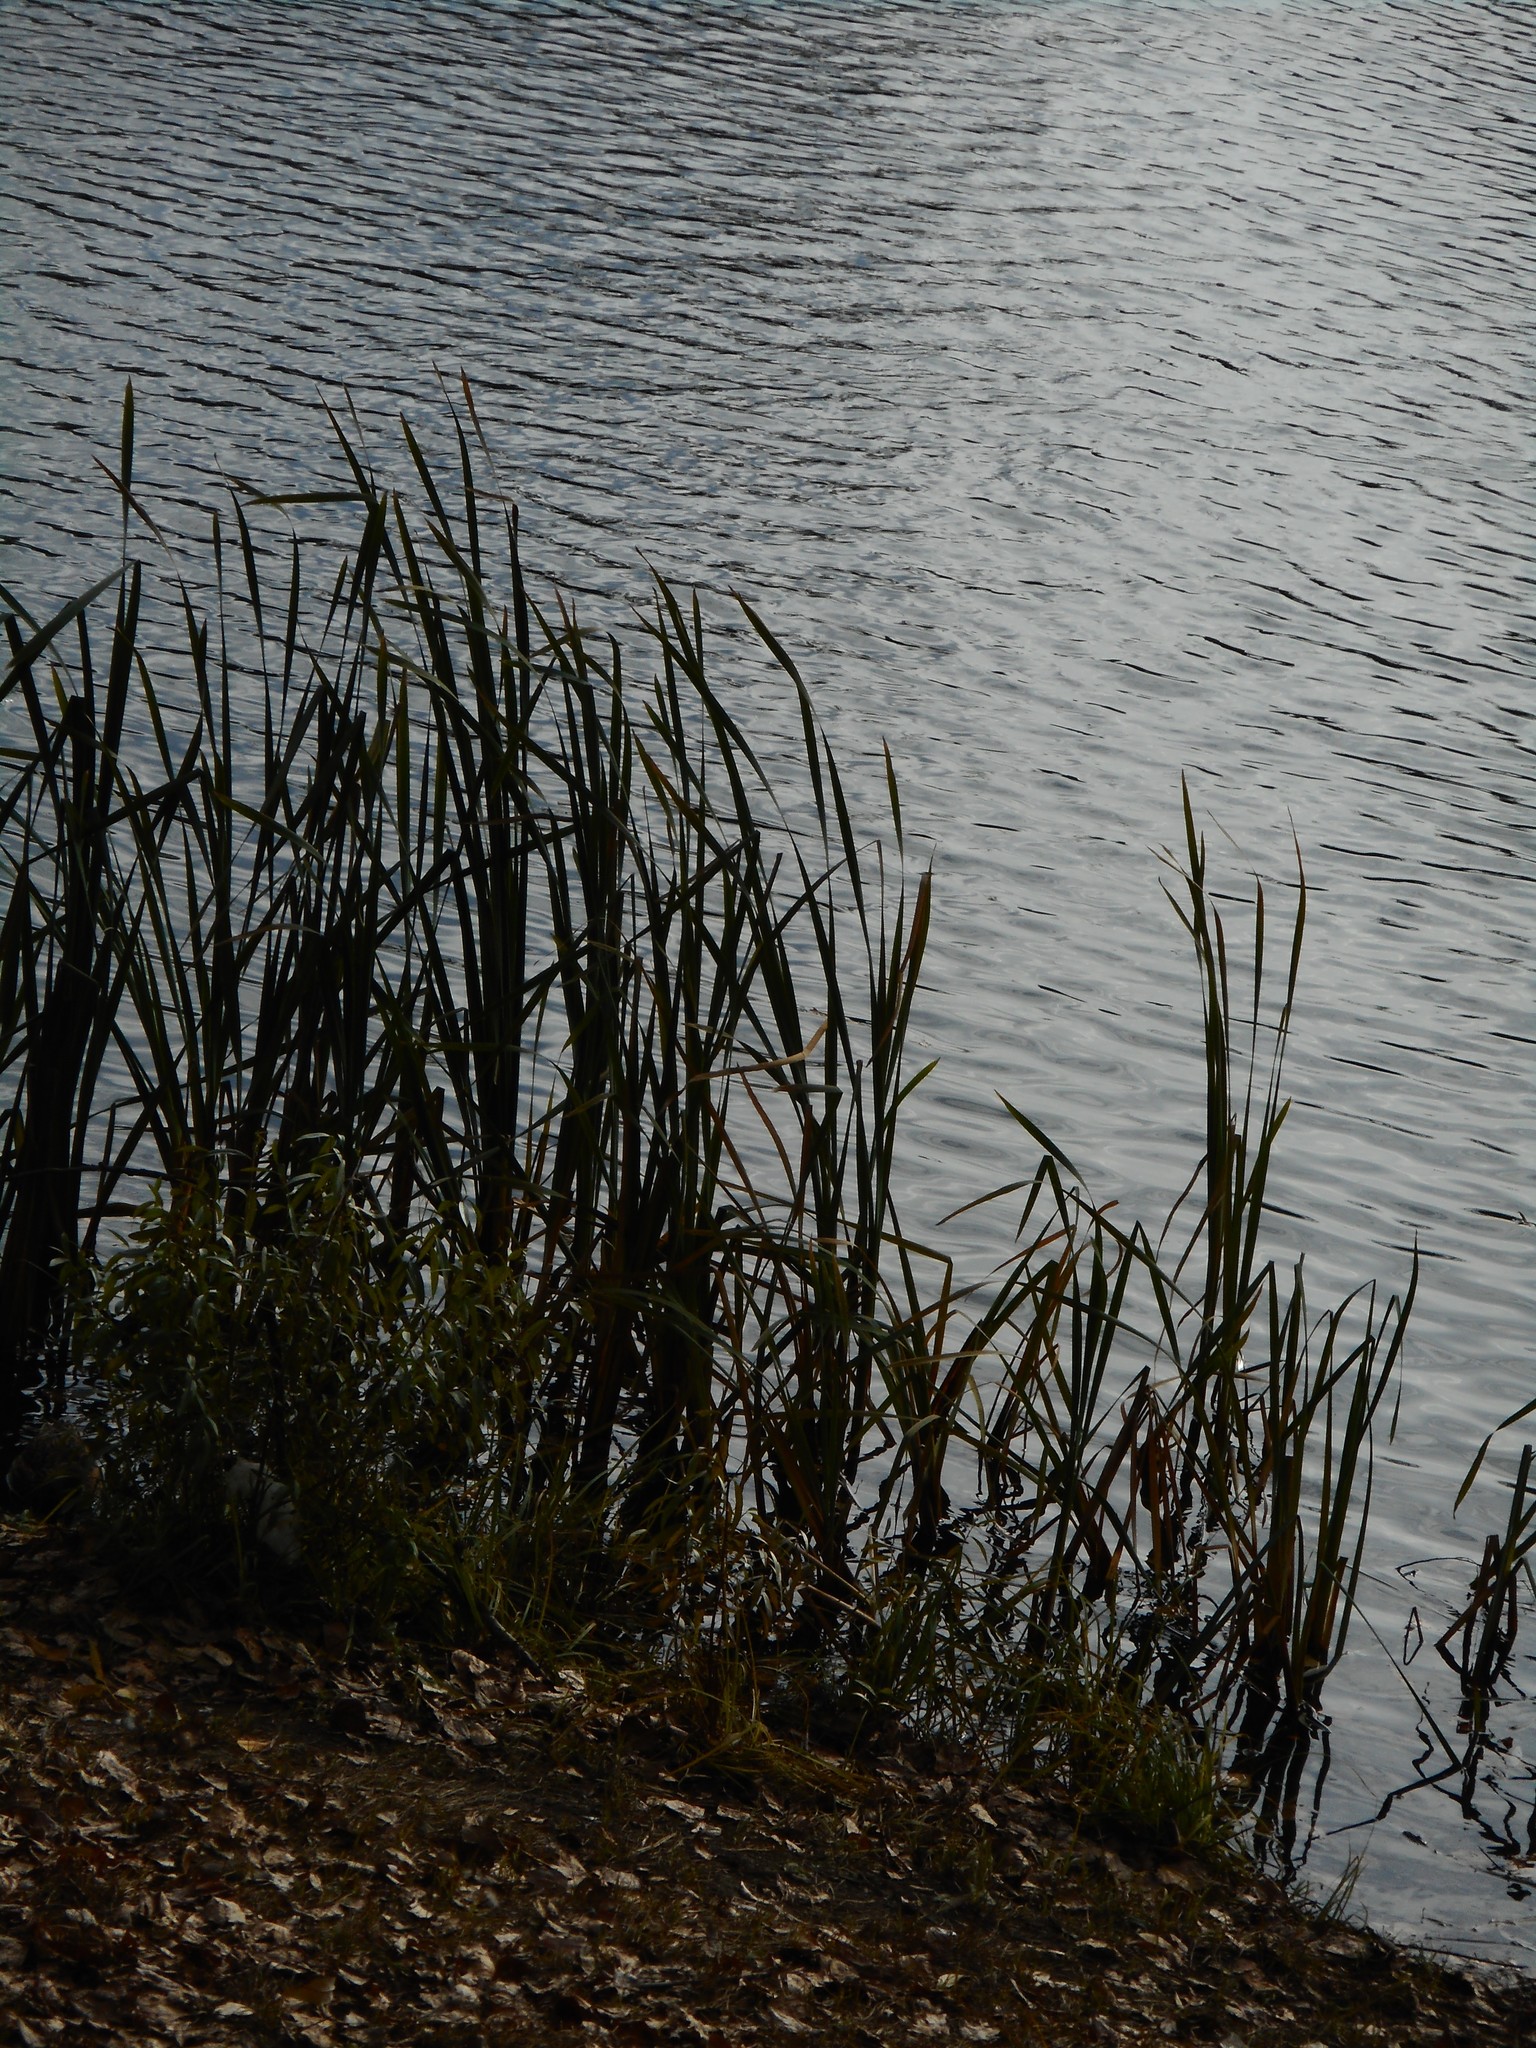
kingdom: Plantae
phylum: Tracheophyta
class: Liliopsida
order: Poales
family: Typhaceae
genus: Typha
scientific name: Typha latifolia
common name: Broadleaf cattail
